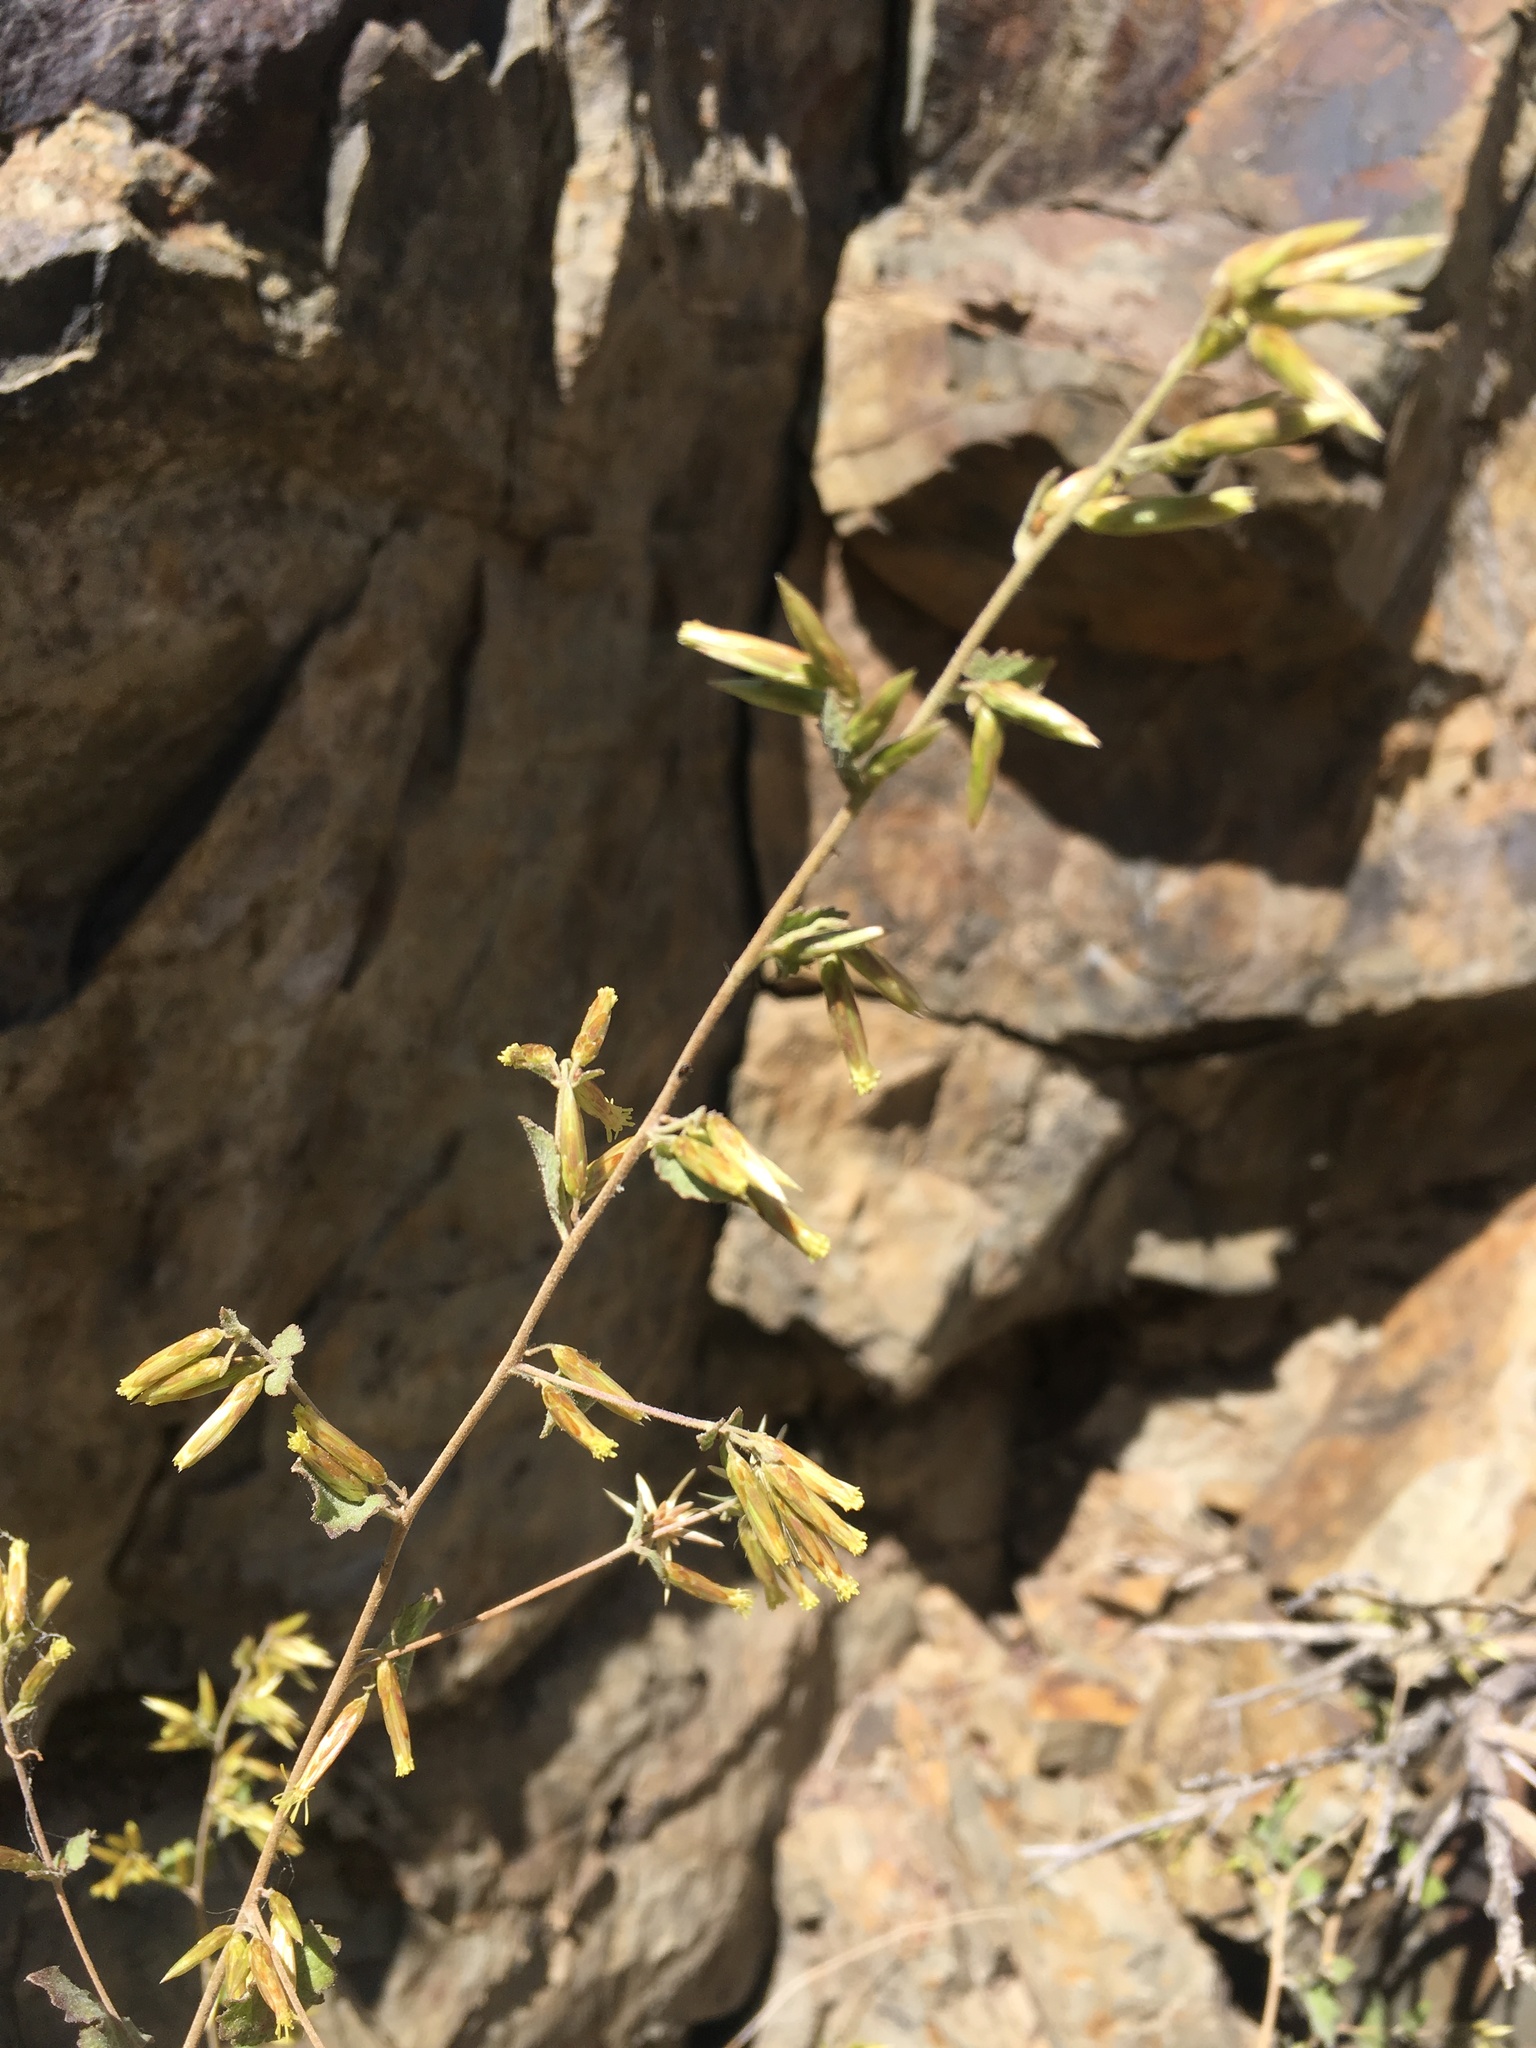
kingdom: Plantae
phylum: Tracheophyta
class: Magnoliopsida
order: Asterales
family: Asteraceae
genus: Brickellia
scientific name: Brickellia californica
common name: California brickellbush
